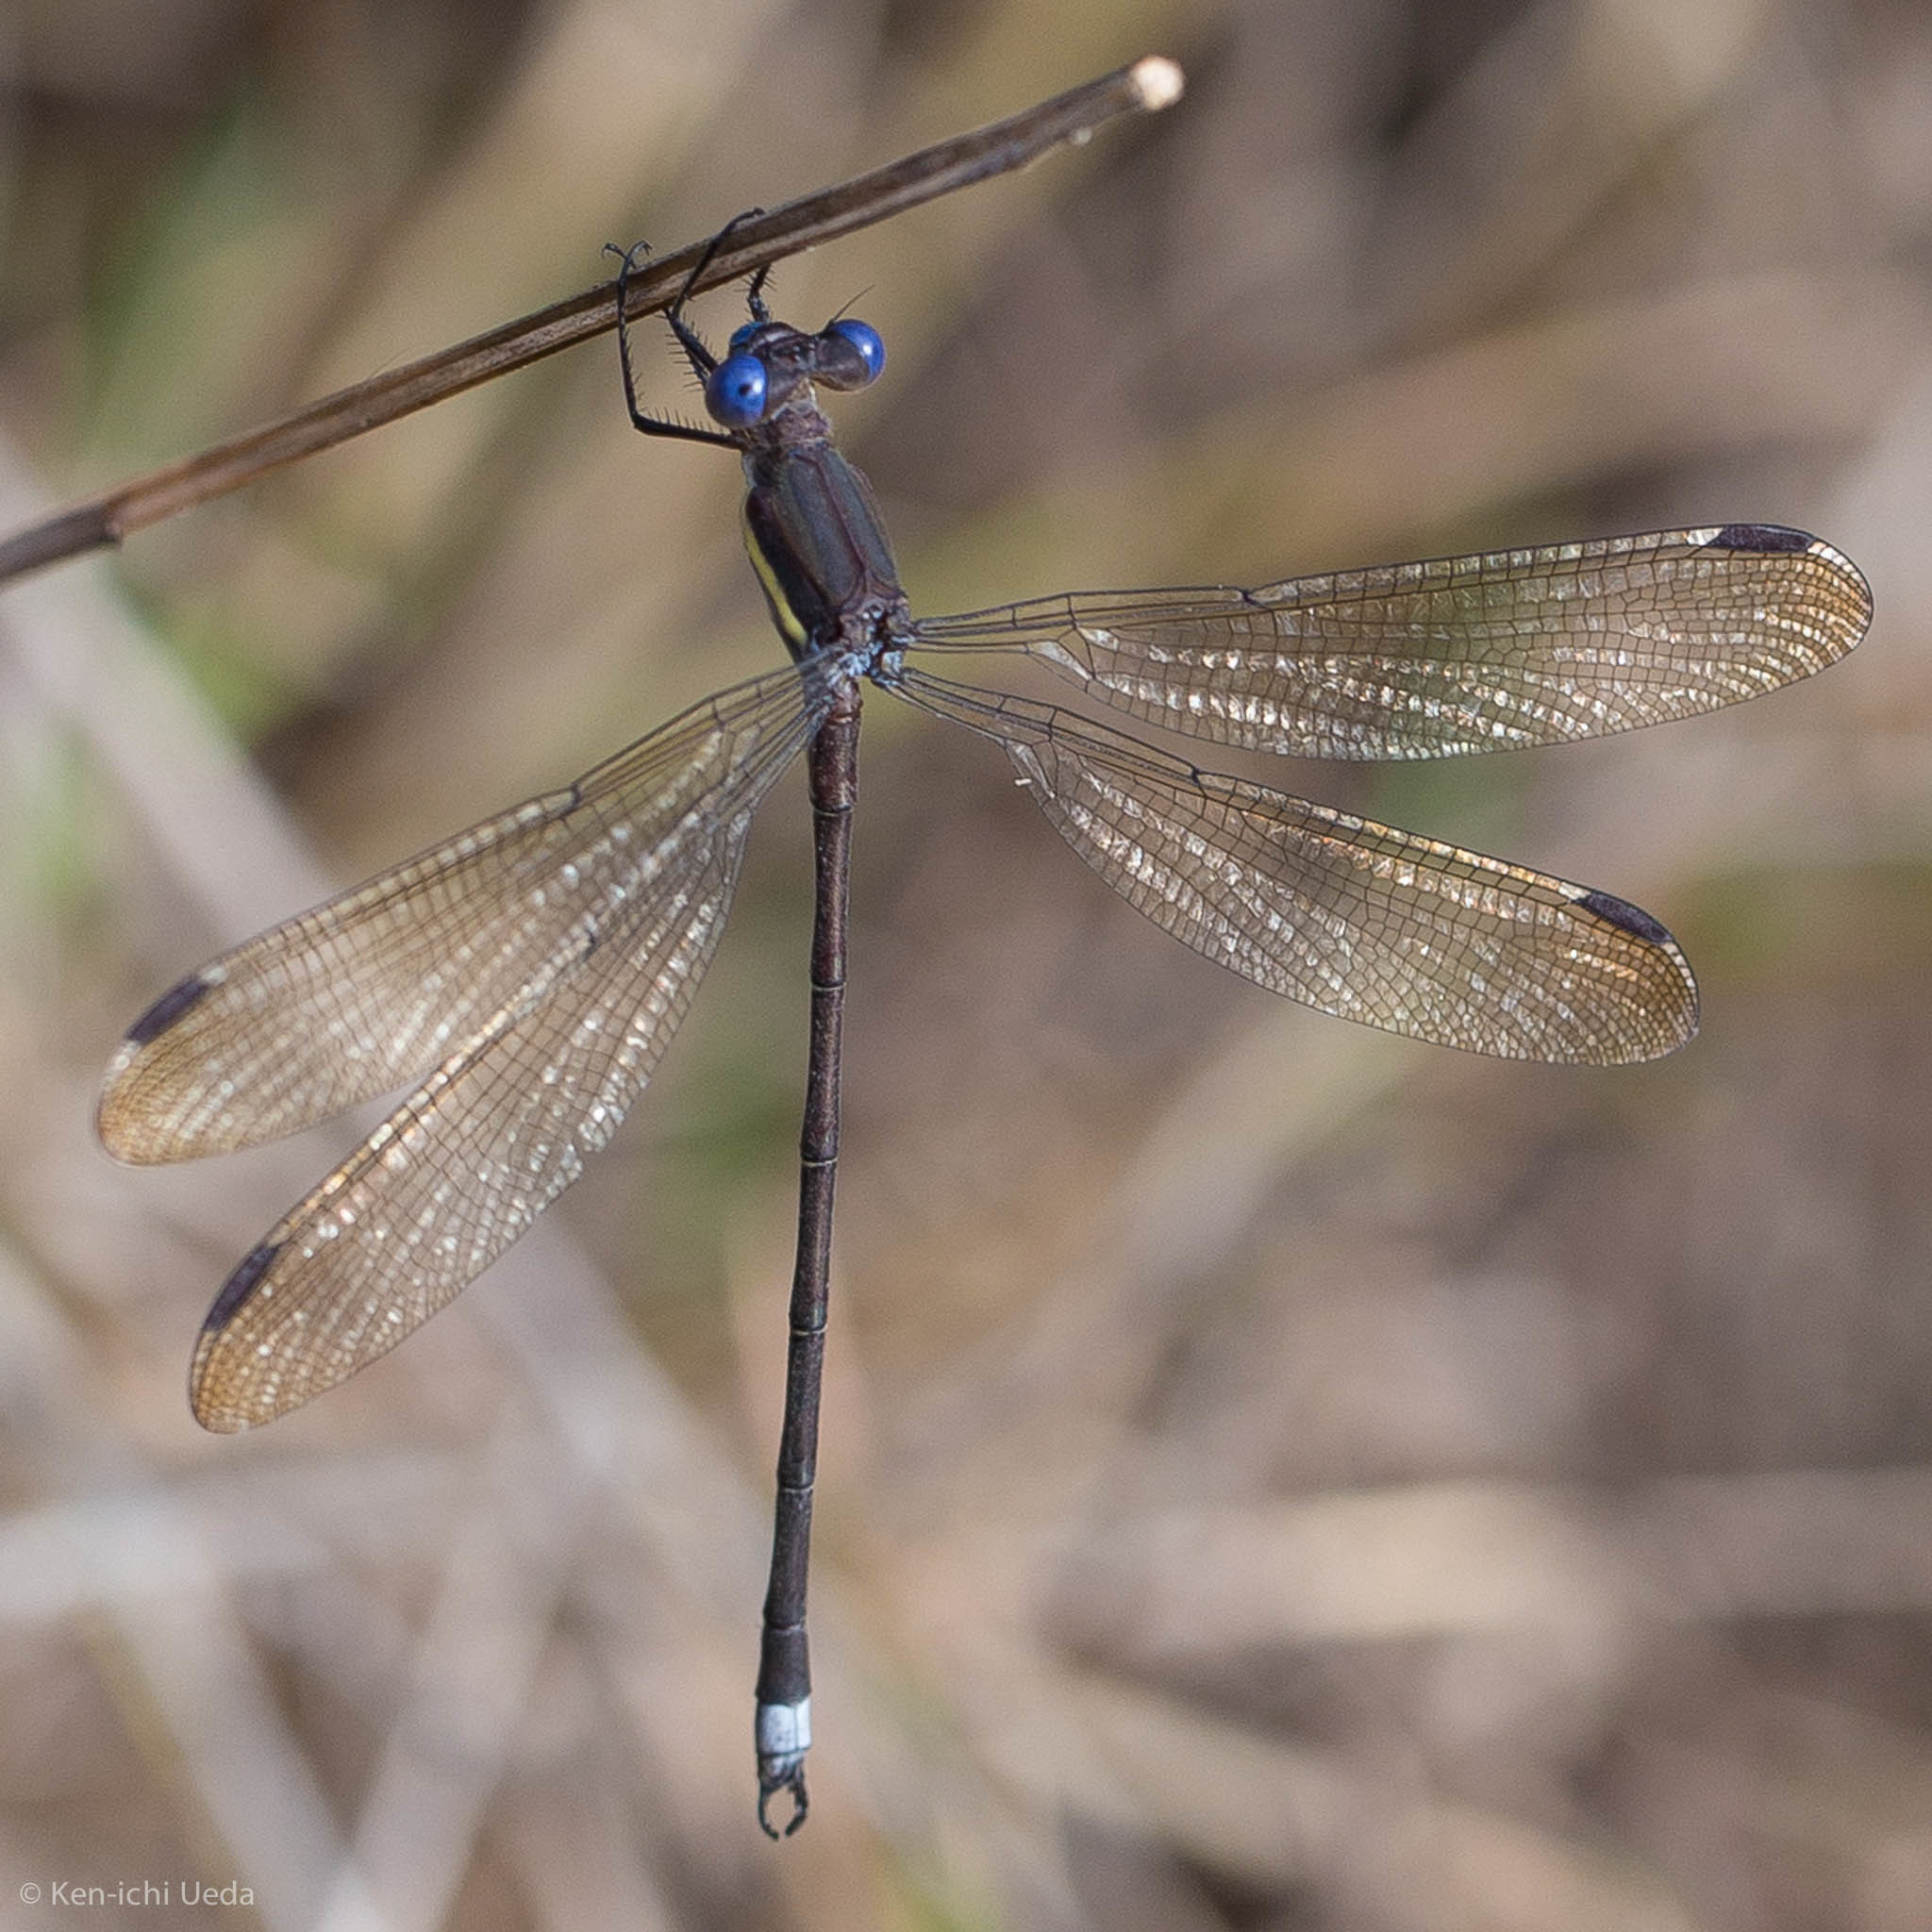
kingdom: Animalia
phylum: Arthropoda
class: Insecta
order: Odonata
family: Lestidae
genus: Archilestes
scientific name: Archilestes grandis
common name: Great spreadwing
